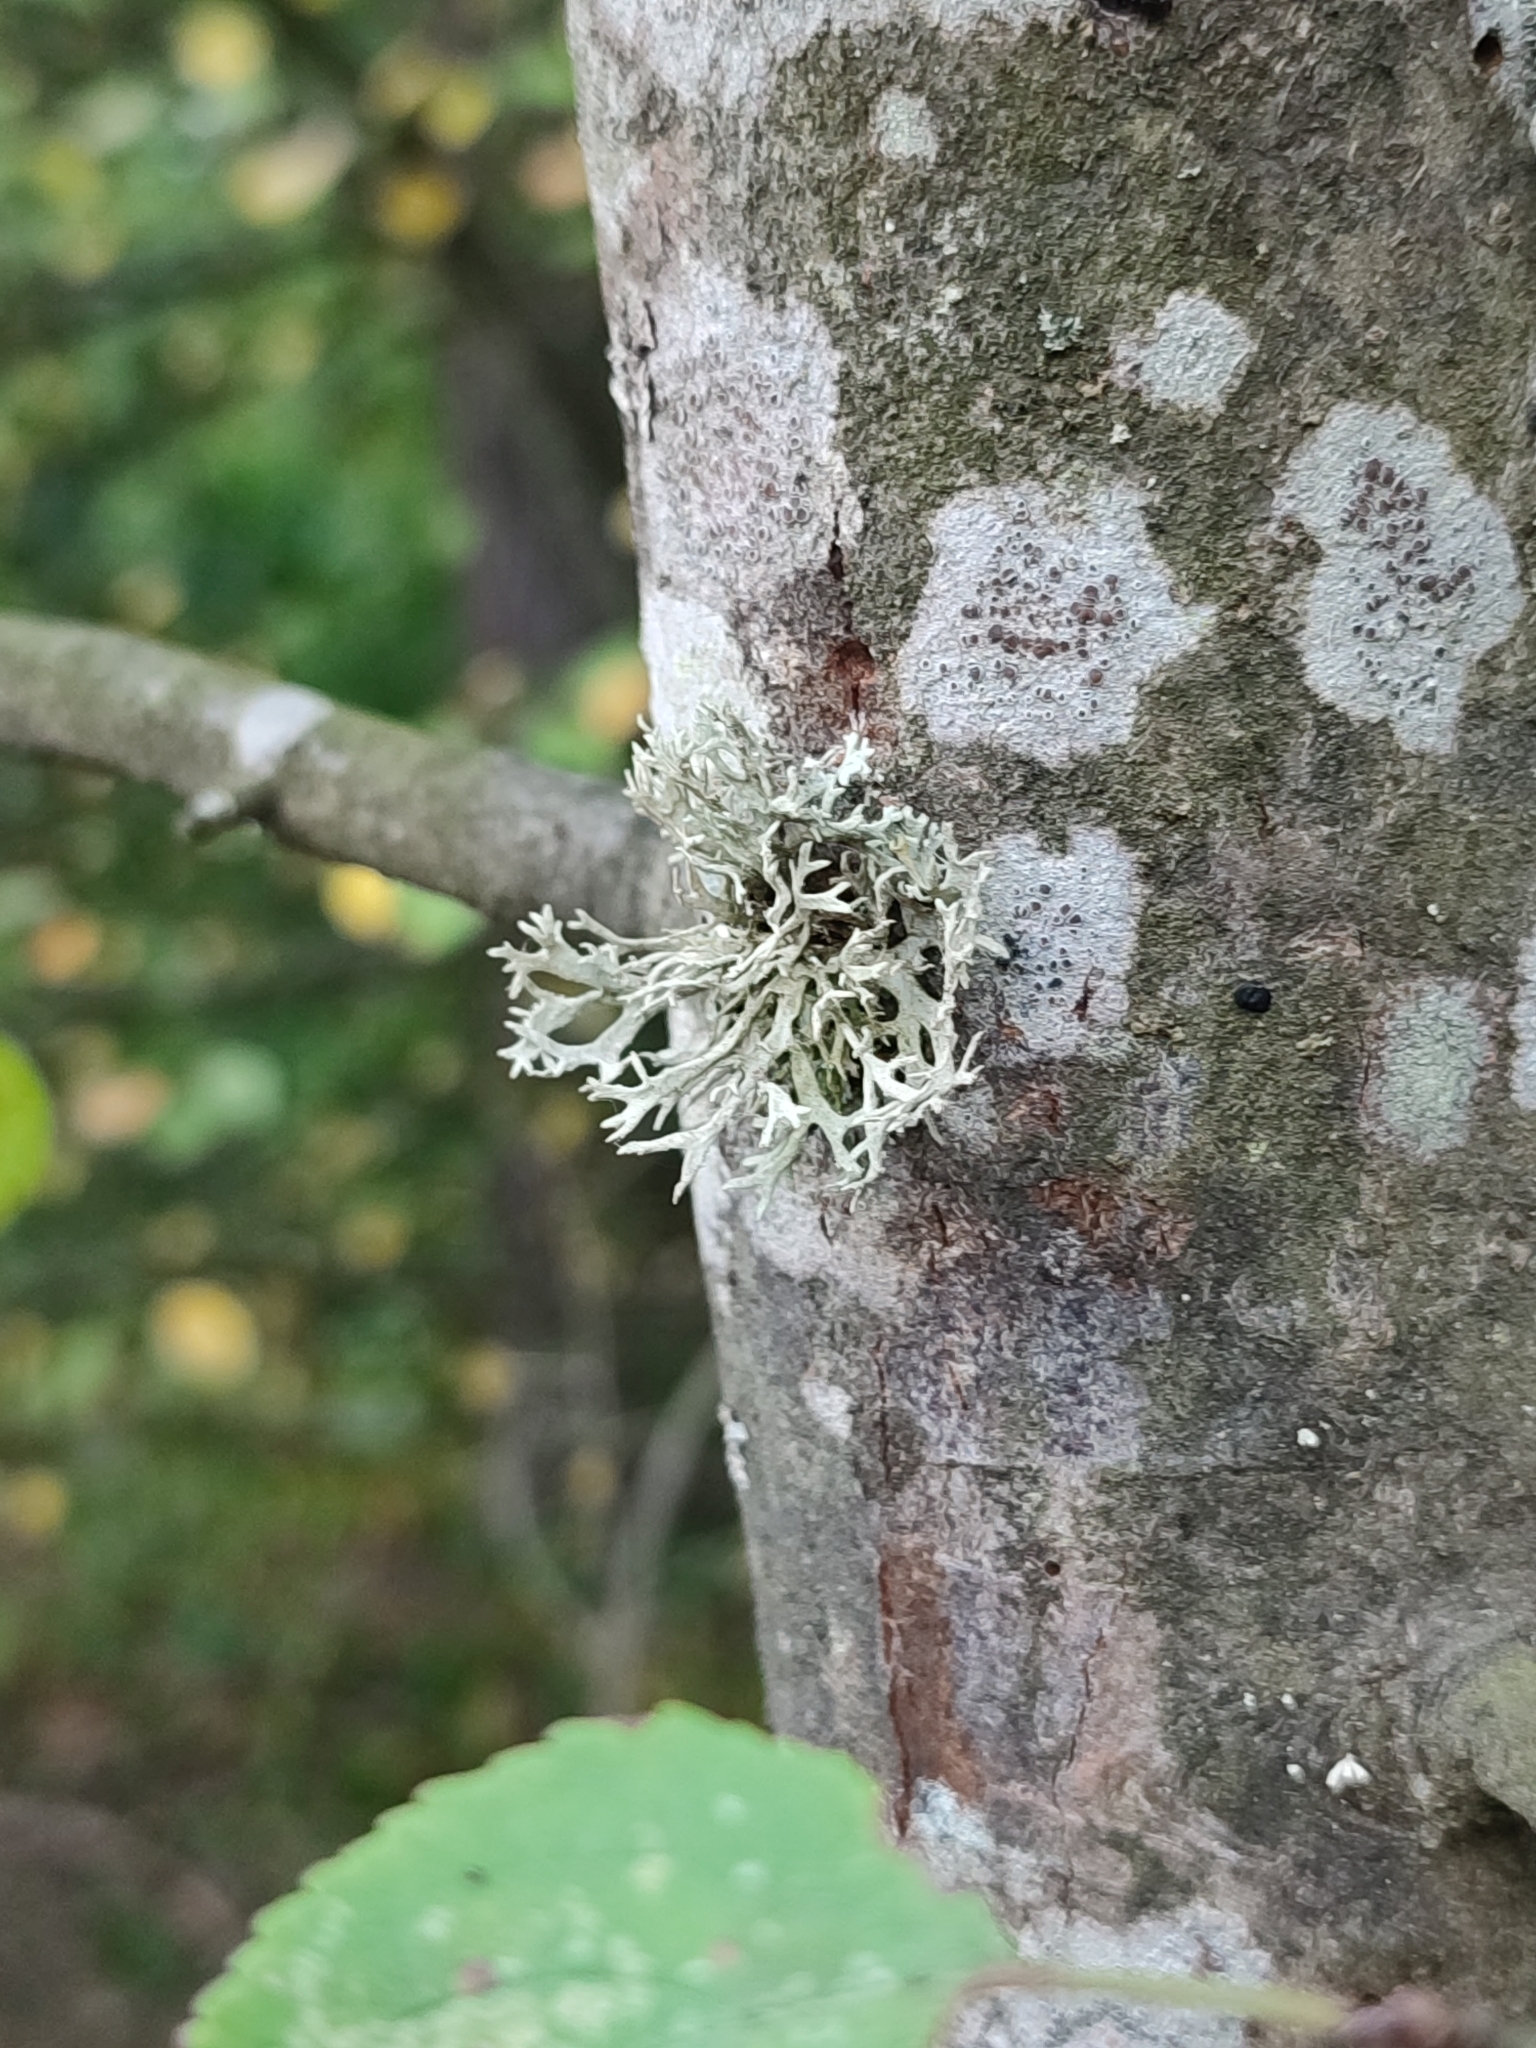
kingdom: Fungi
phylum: Ascomycota
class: Lecanoromycetes
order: Lecanorales
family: Parmeliaceae
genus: Evernia
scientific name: Evernia prunastri
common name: Oak moss
